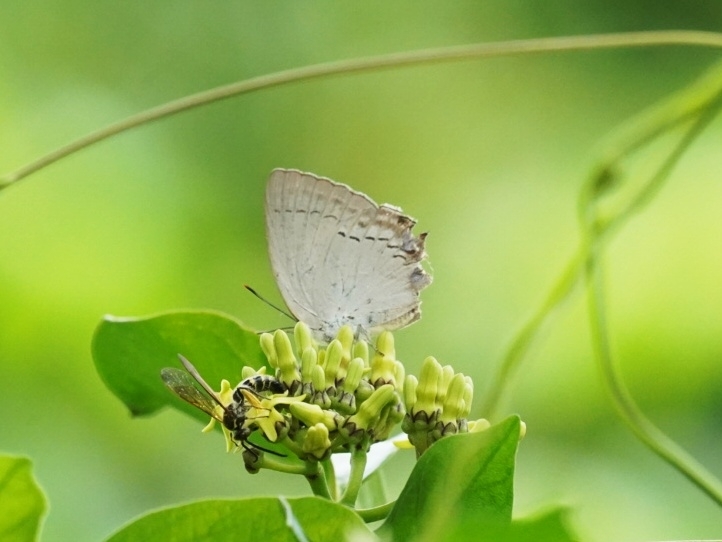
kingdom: Animalia
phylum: Arthropoda
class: Insecta
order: Lepidoptera
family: Lycaenidae
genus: Tajuria
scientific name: Tajuria cippus
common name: Peacock royal
